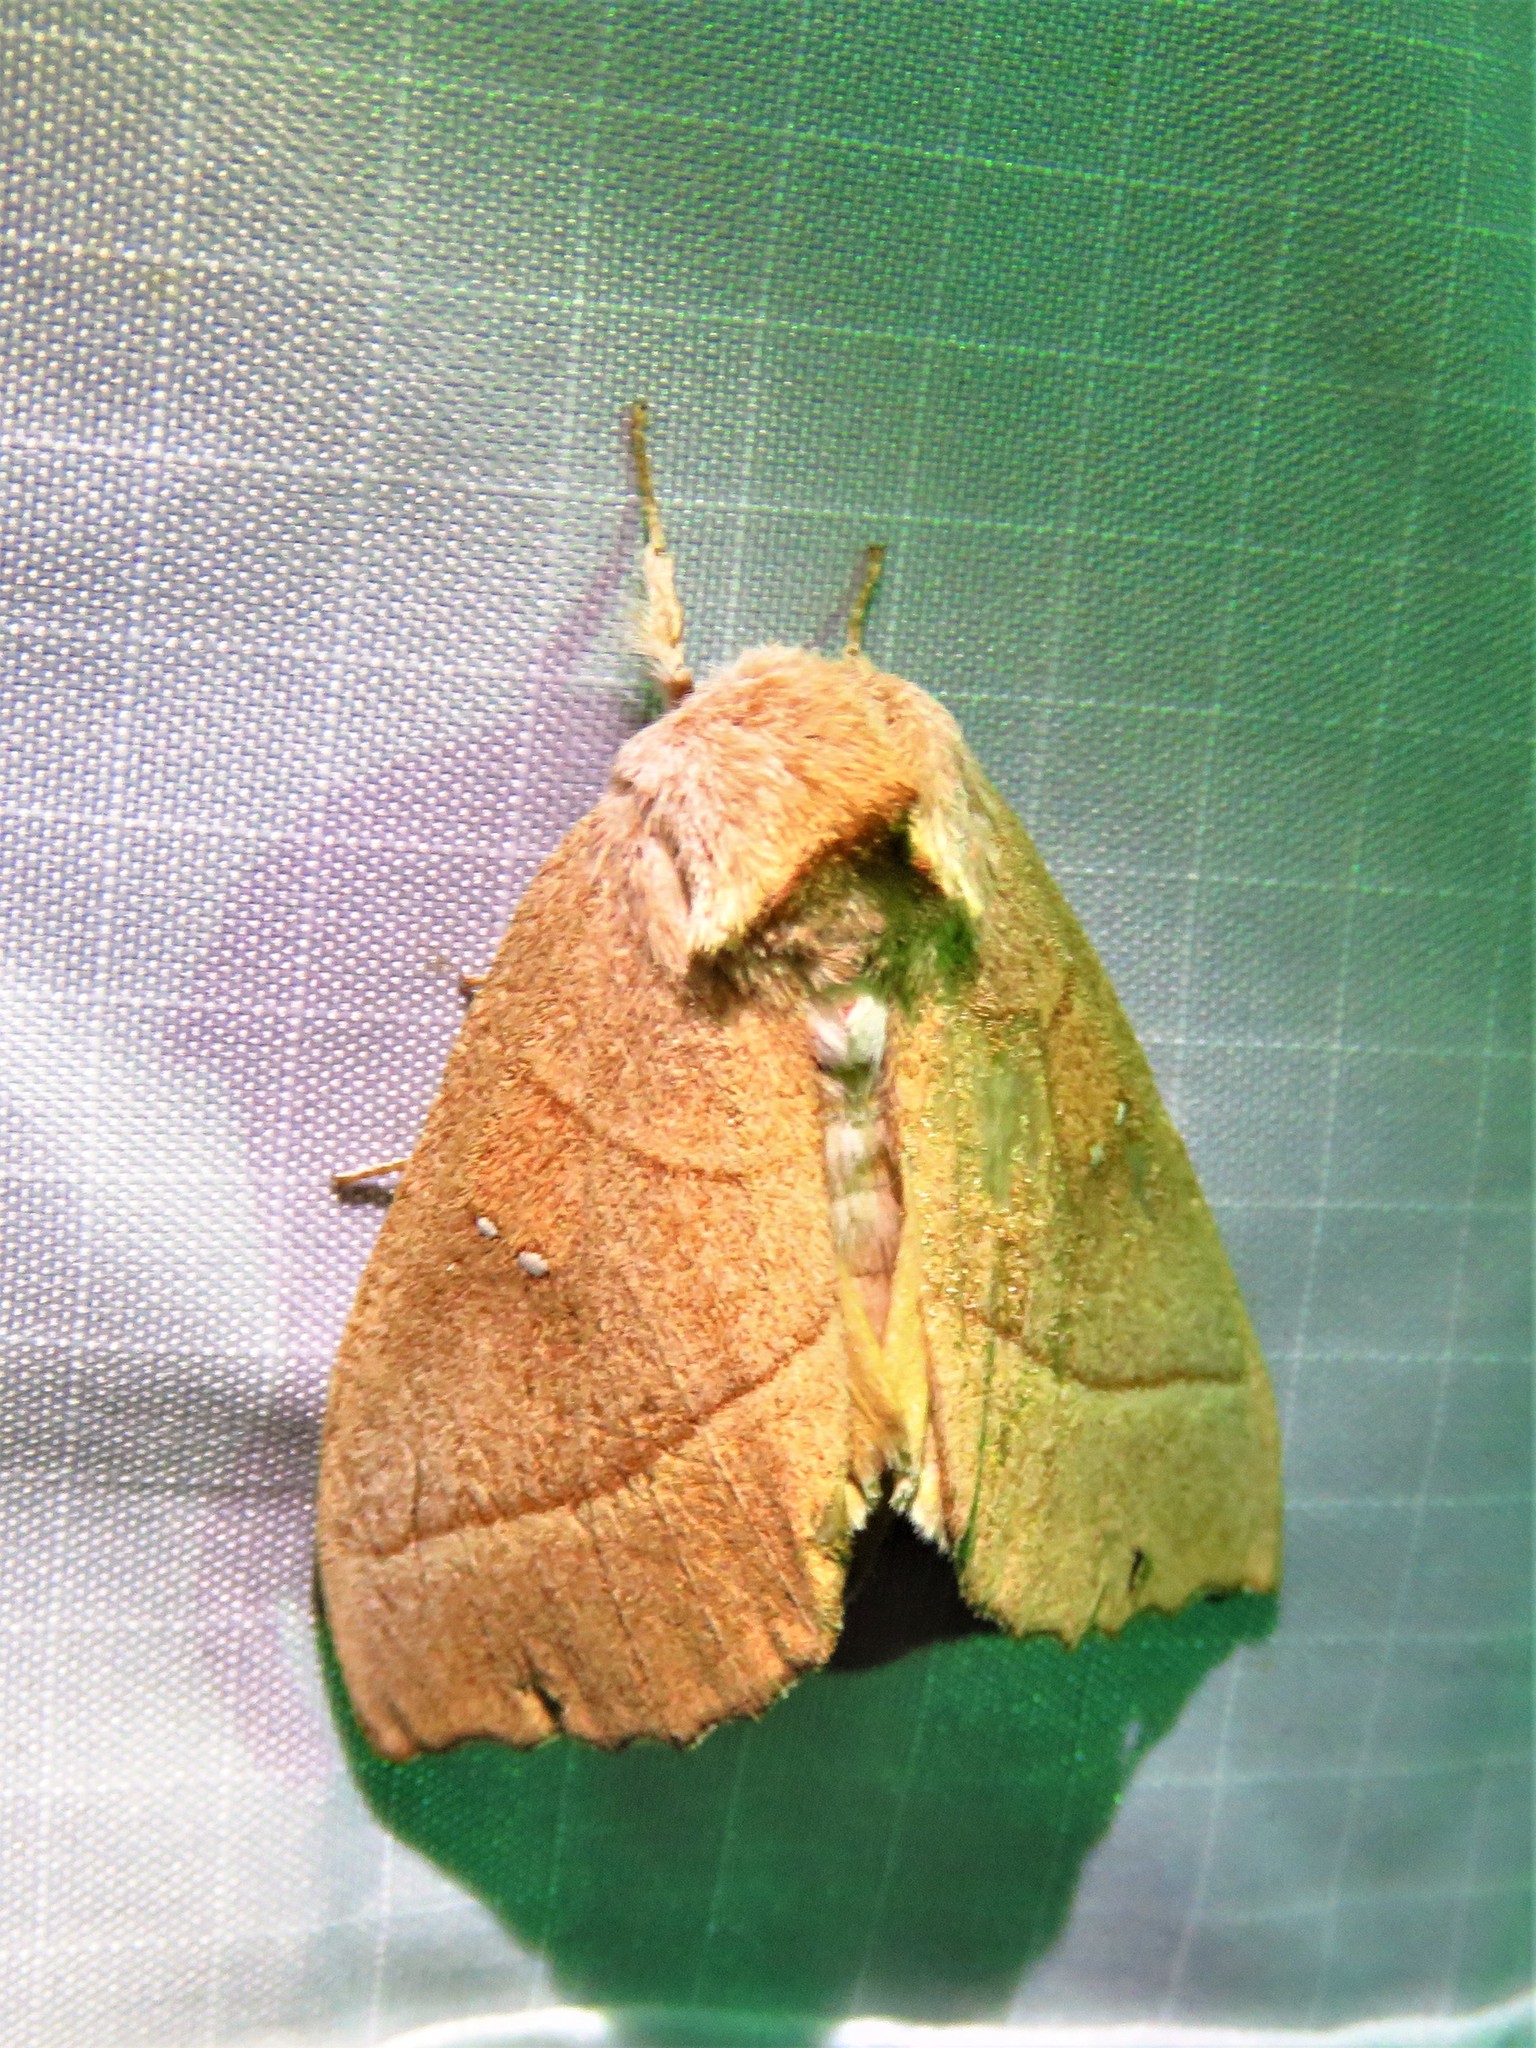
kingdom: Animalia
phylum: Arthropoda
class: Insecta
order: Lepidoptera
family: Notodontidae
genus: Nadata
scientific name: Nadata gibbosa
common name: White-dotted prominent
